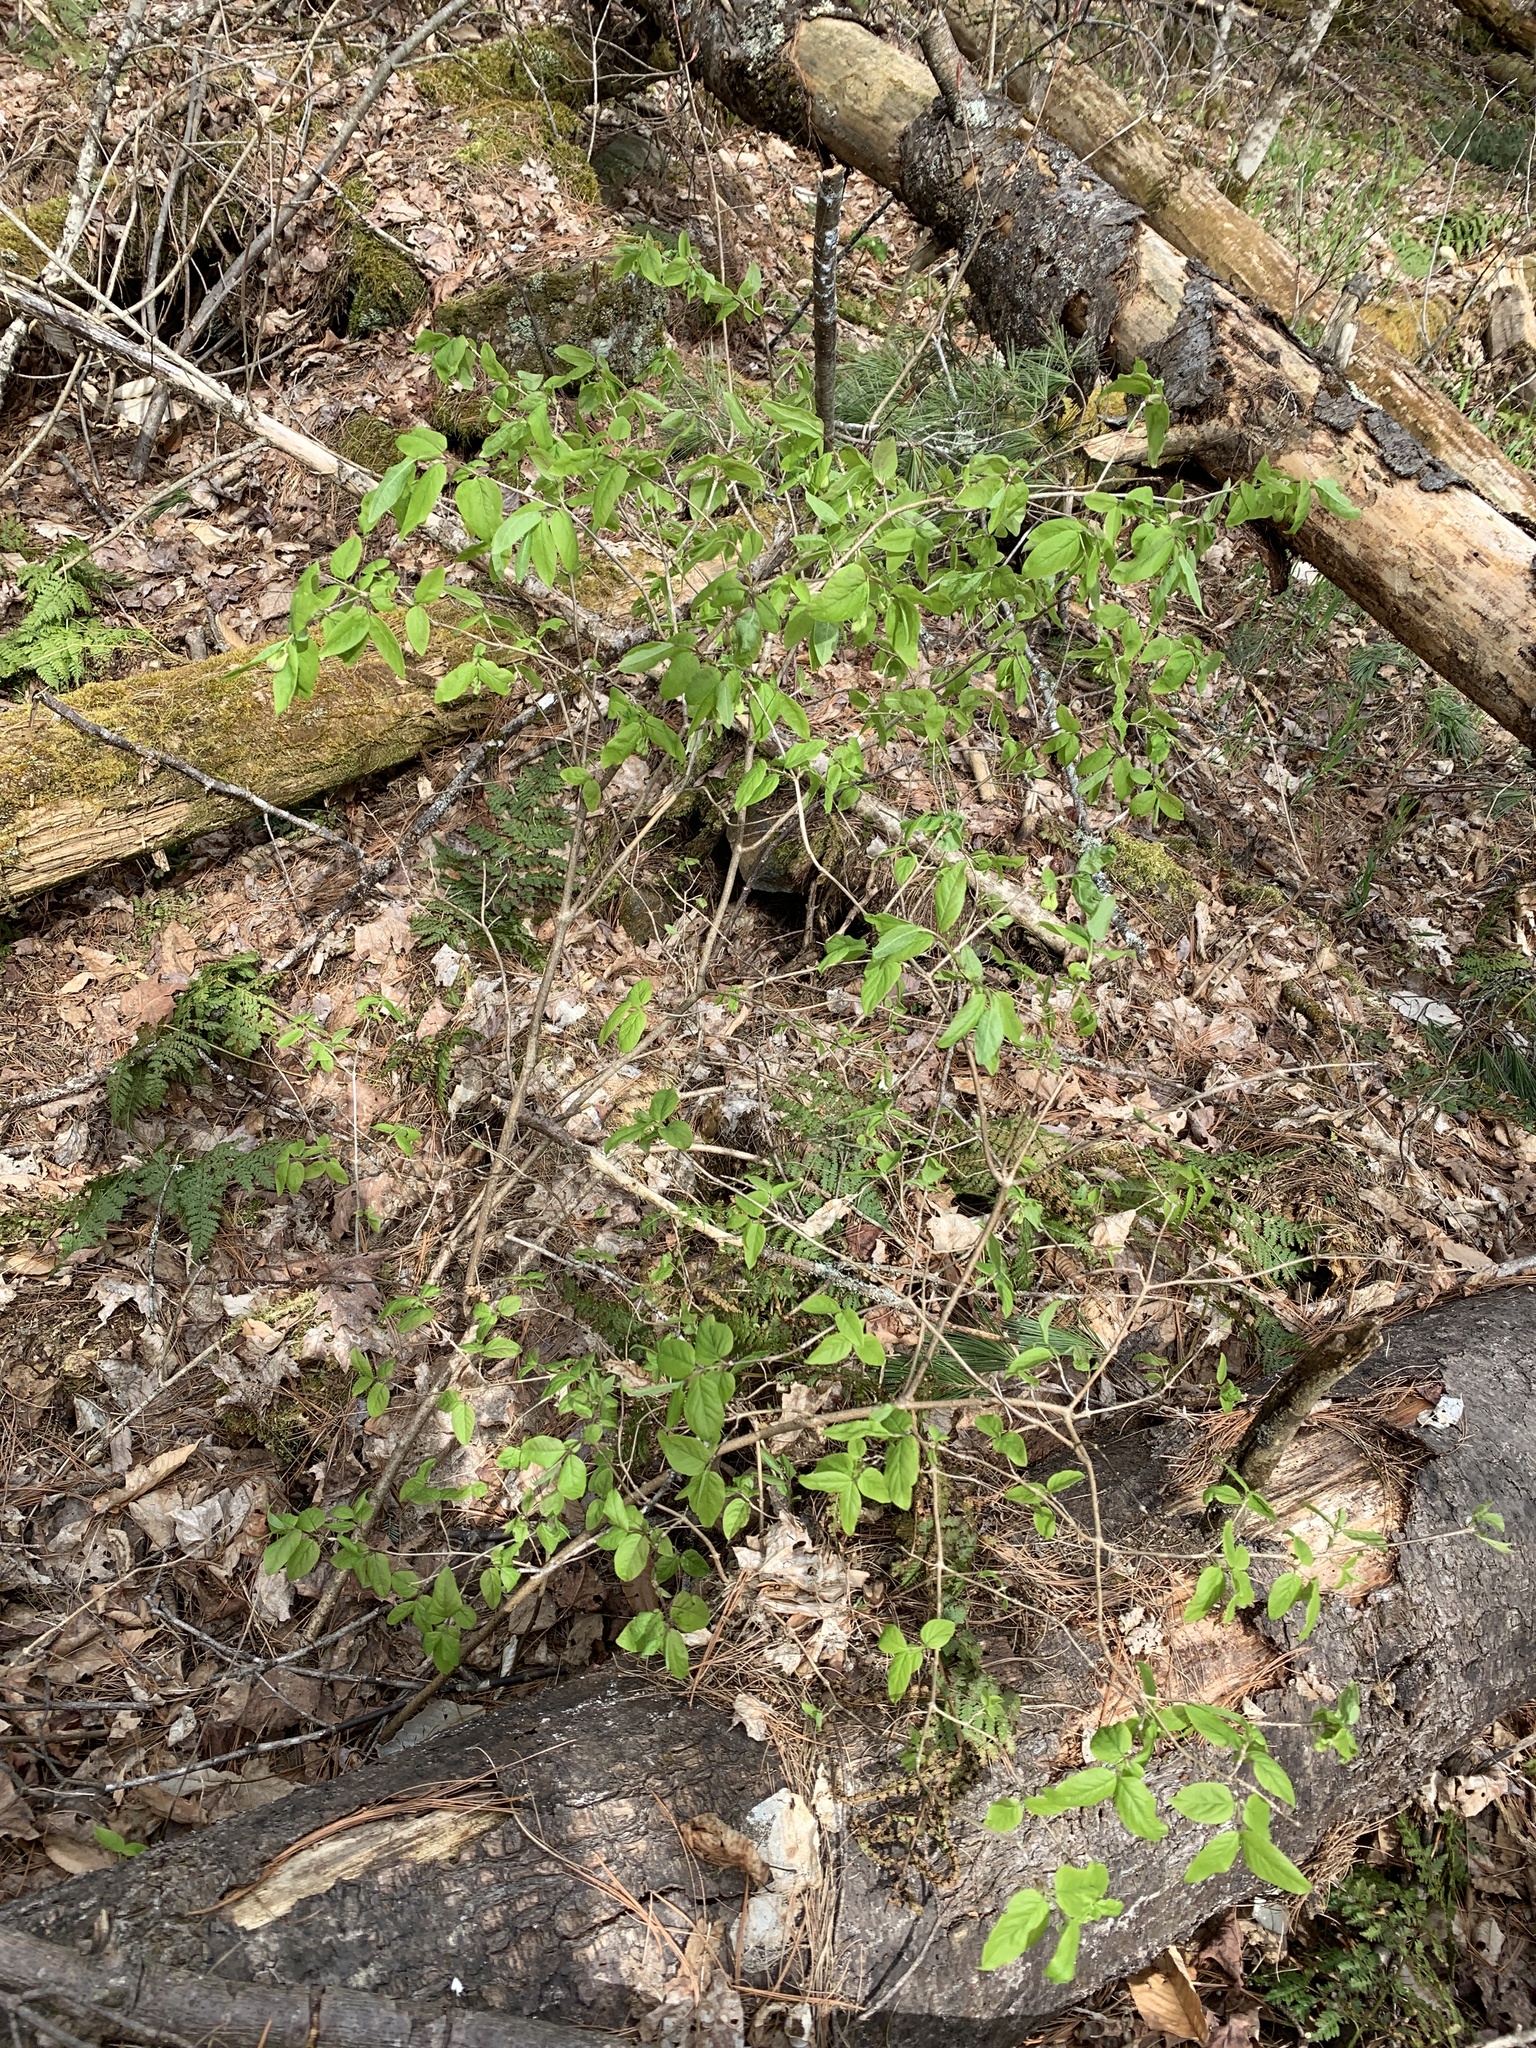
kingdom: Plantae
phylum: Tracheophyta
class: Magnoliopsida
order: Dipsacales
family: Caprifoliaceae
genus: Lonicera
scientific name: Lonicera canadensis
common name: American fly-honeysuckle
